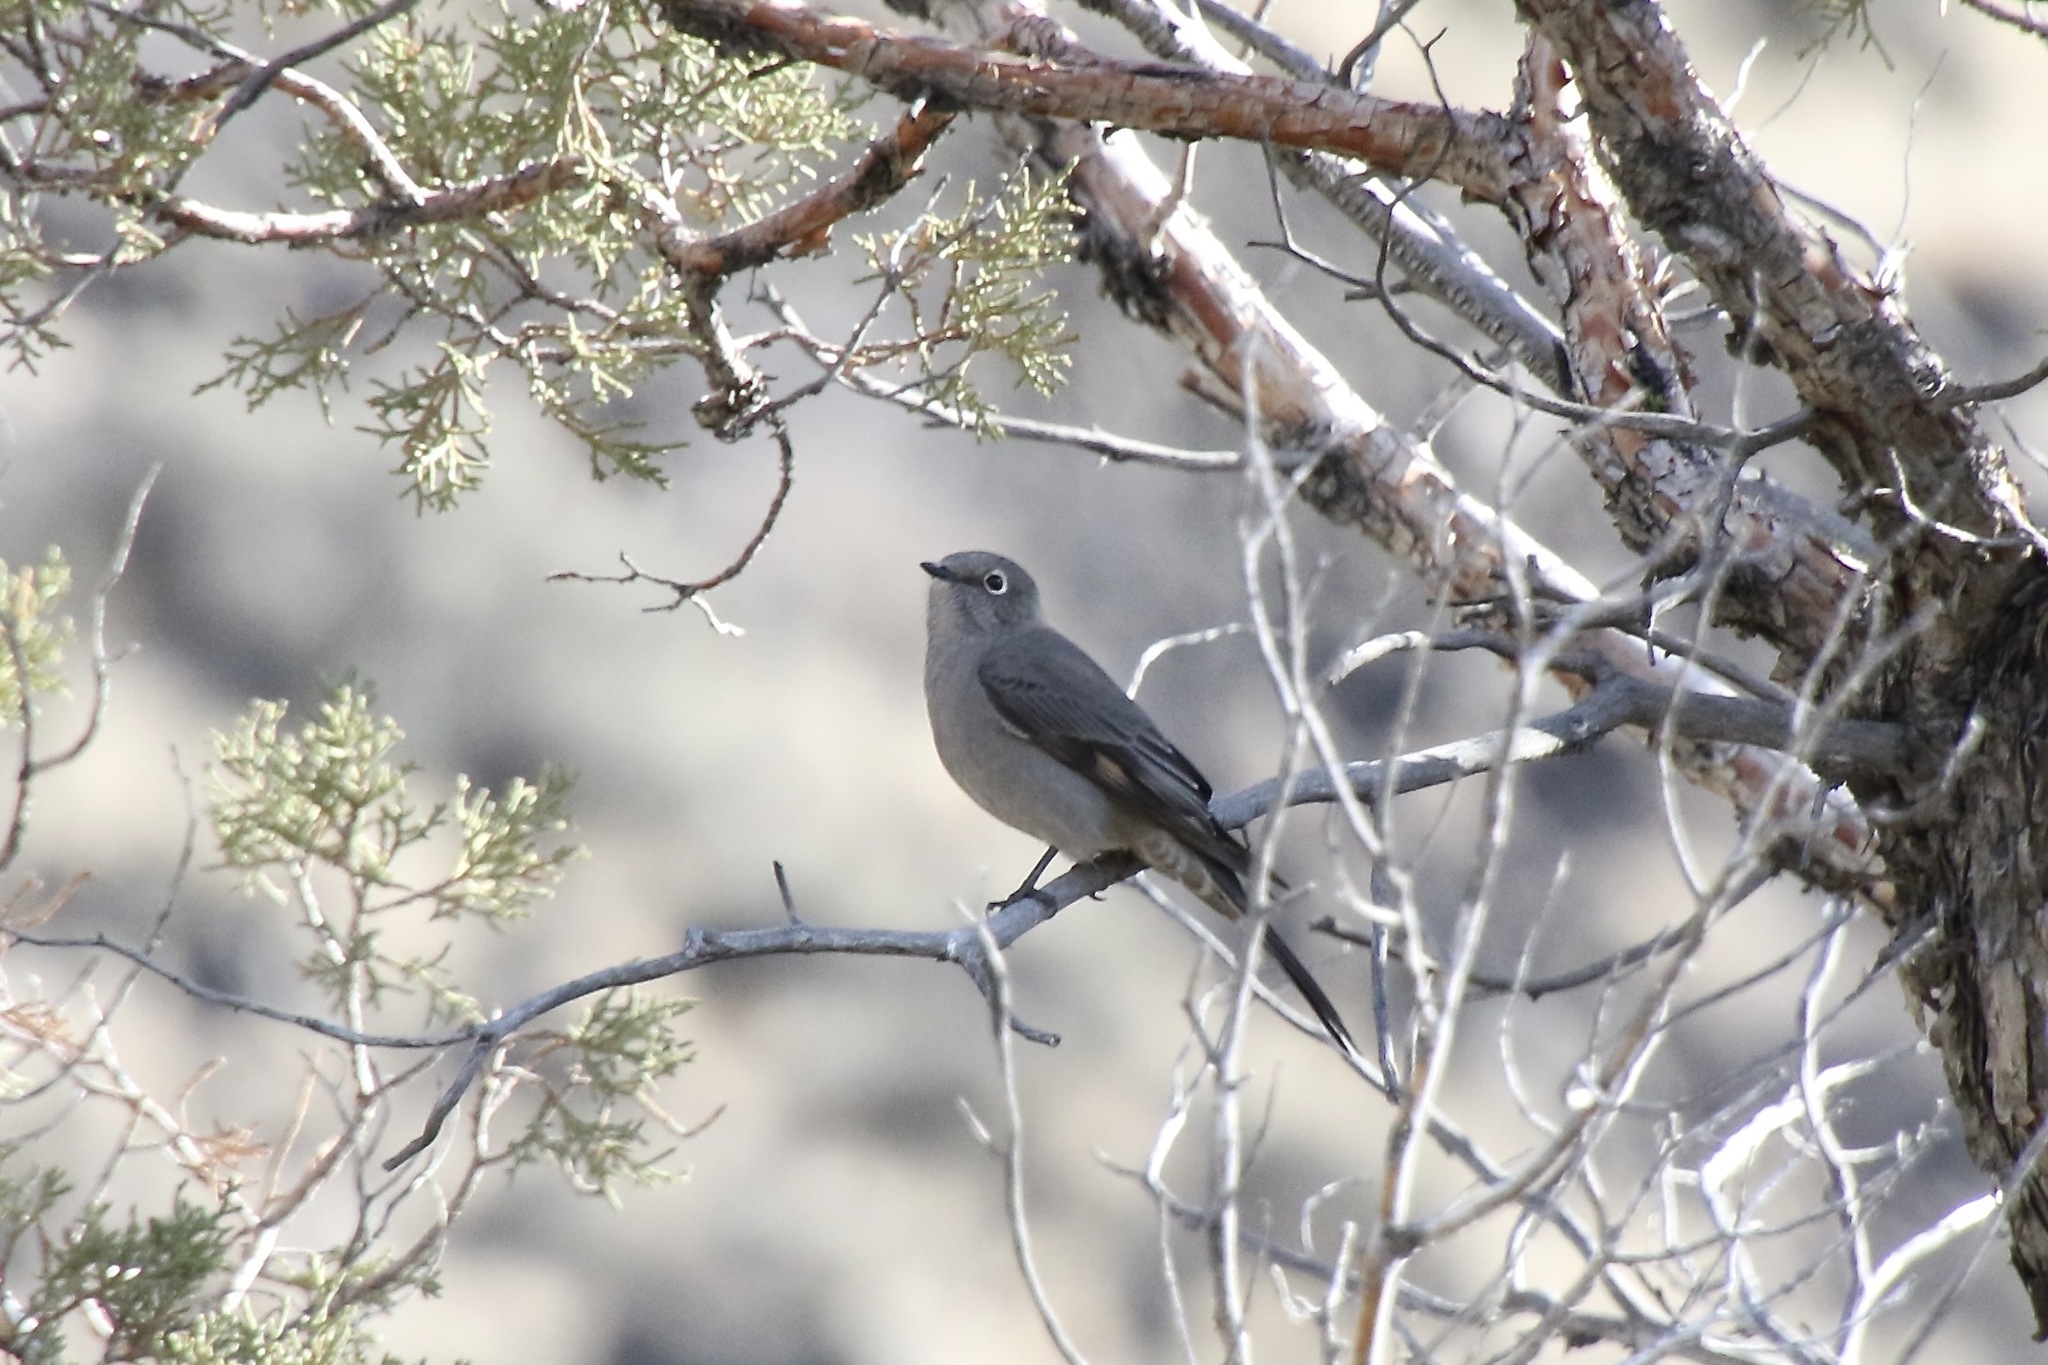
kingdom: Animalia
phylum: Chordata
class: Aves
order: Passeriformes
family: Turdidae
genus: Myadestes
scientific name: Myadestes townsendi
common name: Townsend's solitaire
